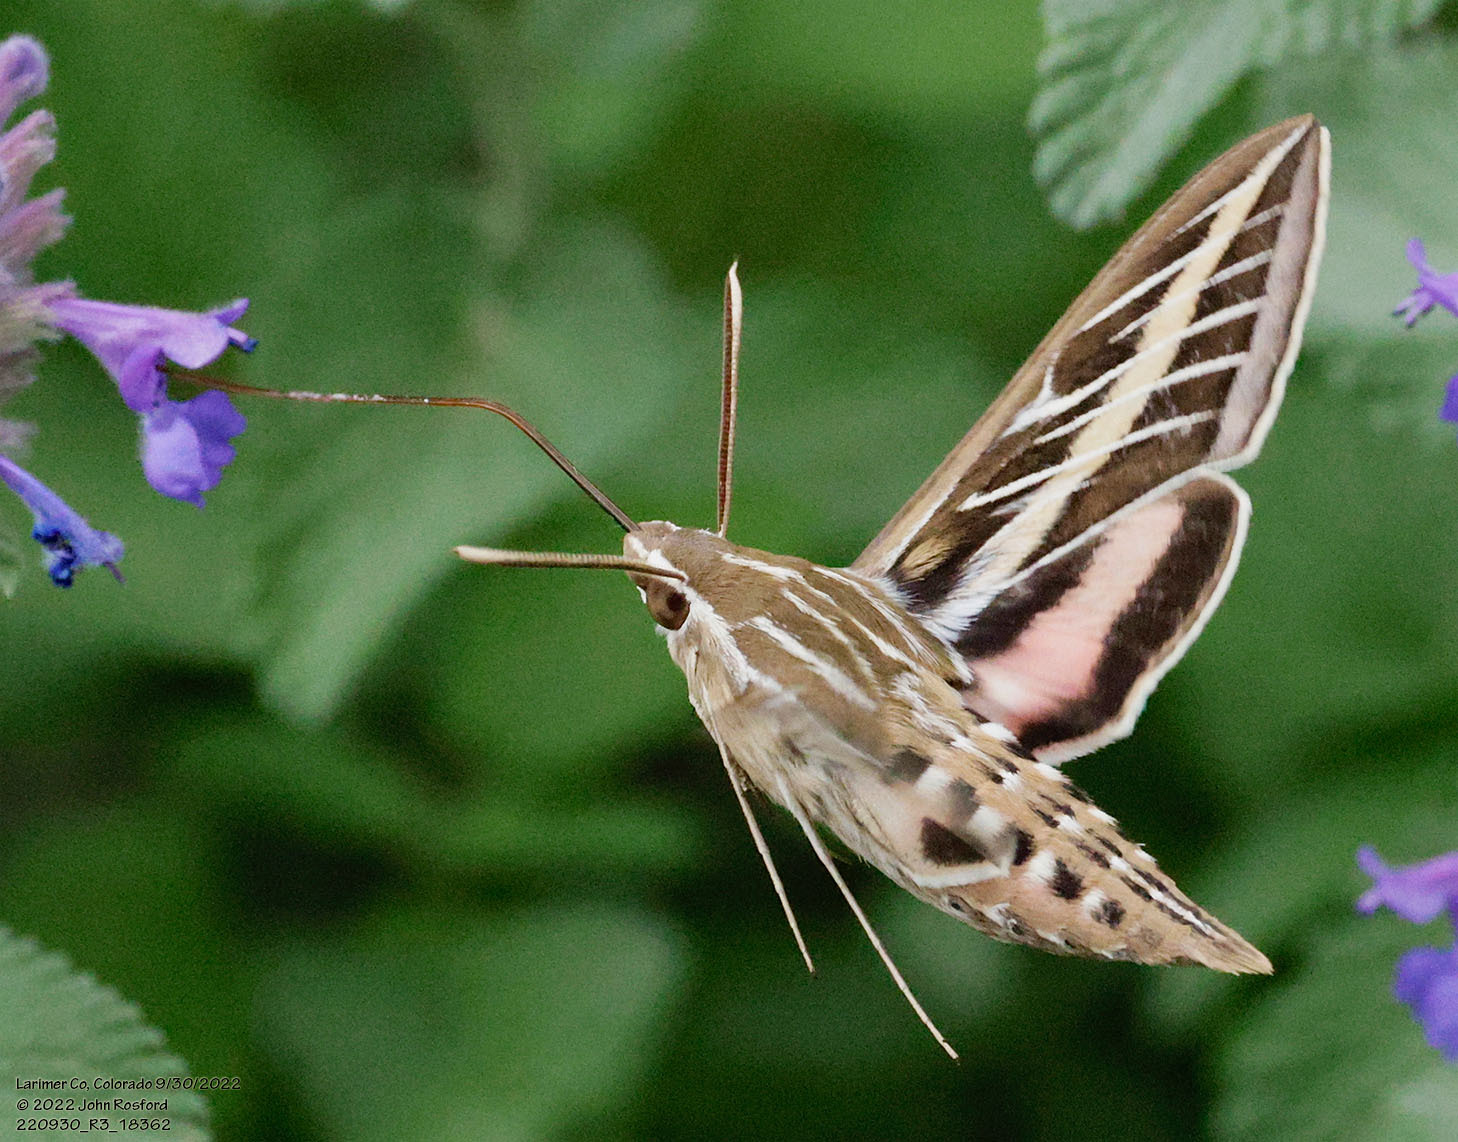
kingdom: Animalia
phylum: Arthropoda
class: Insecta
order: Lepidoptera
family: Sphingidae
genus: Hyles
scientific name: Hyles lineata
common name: White-lined sphinx
